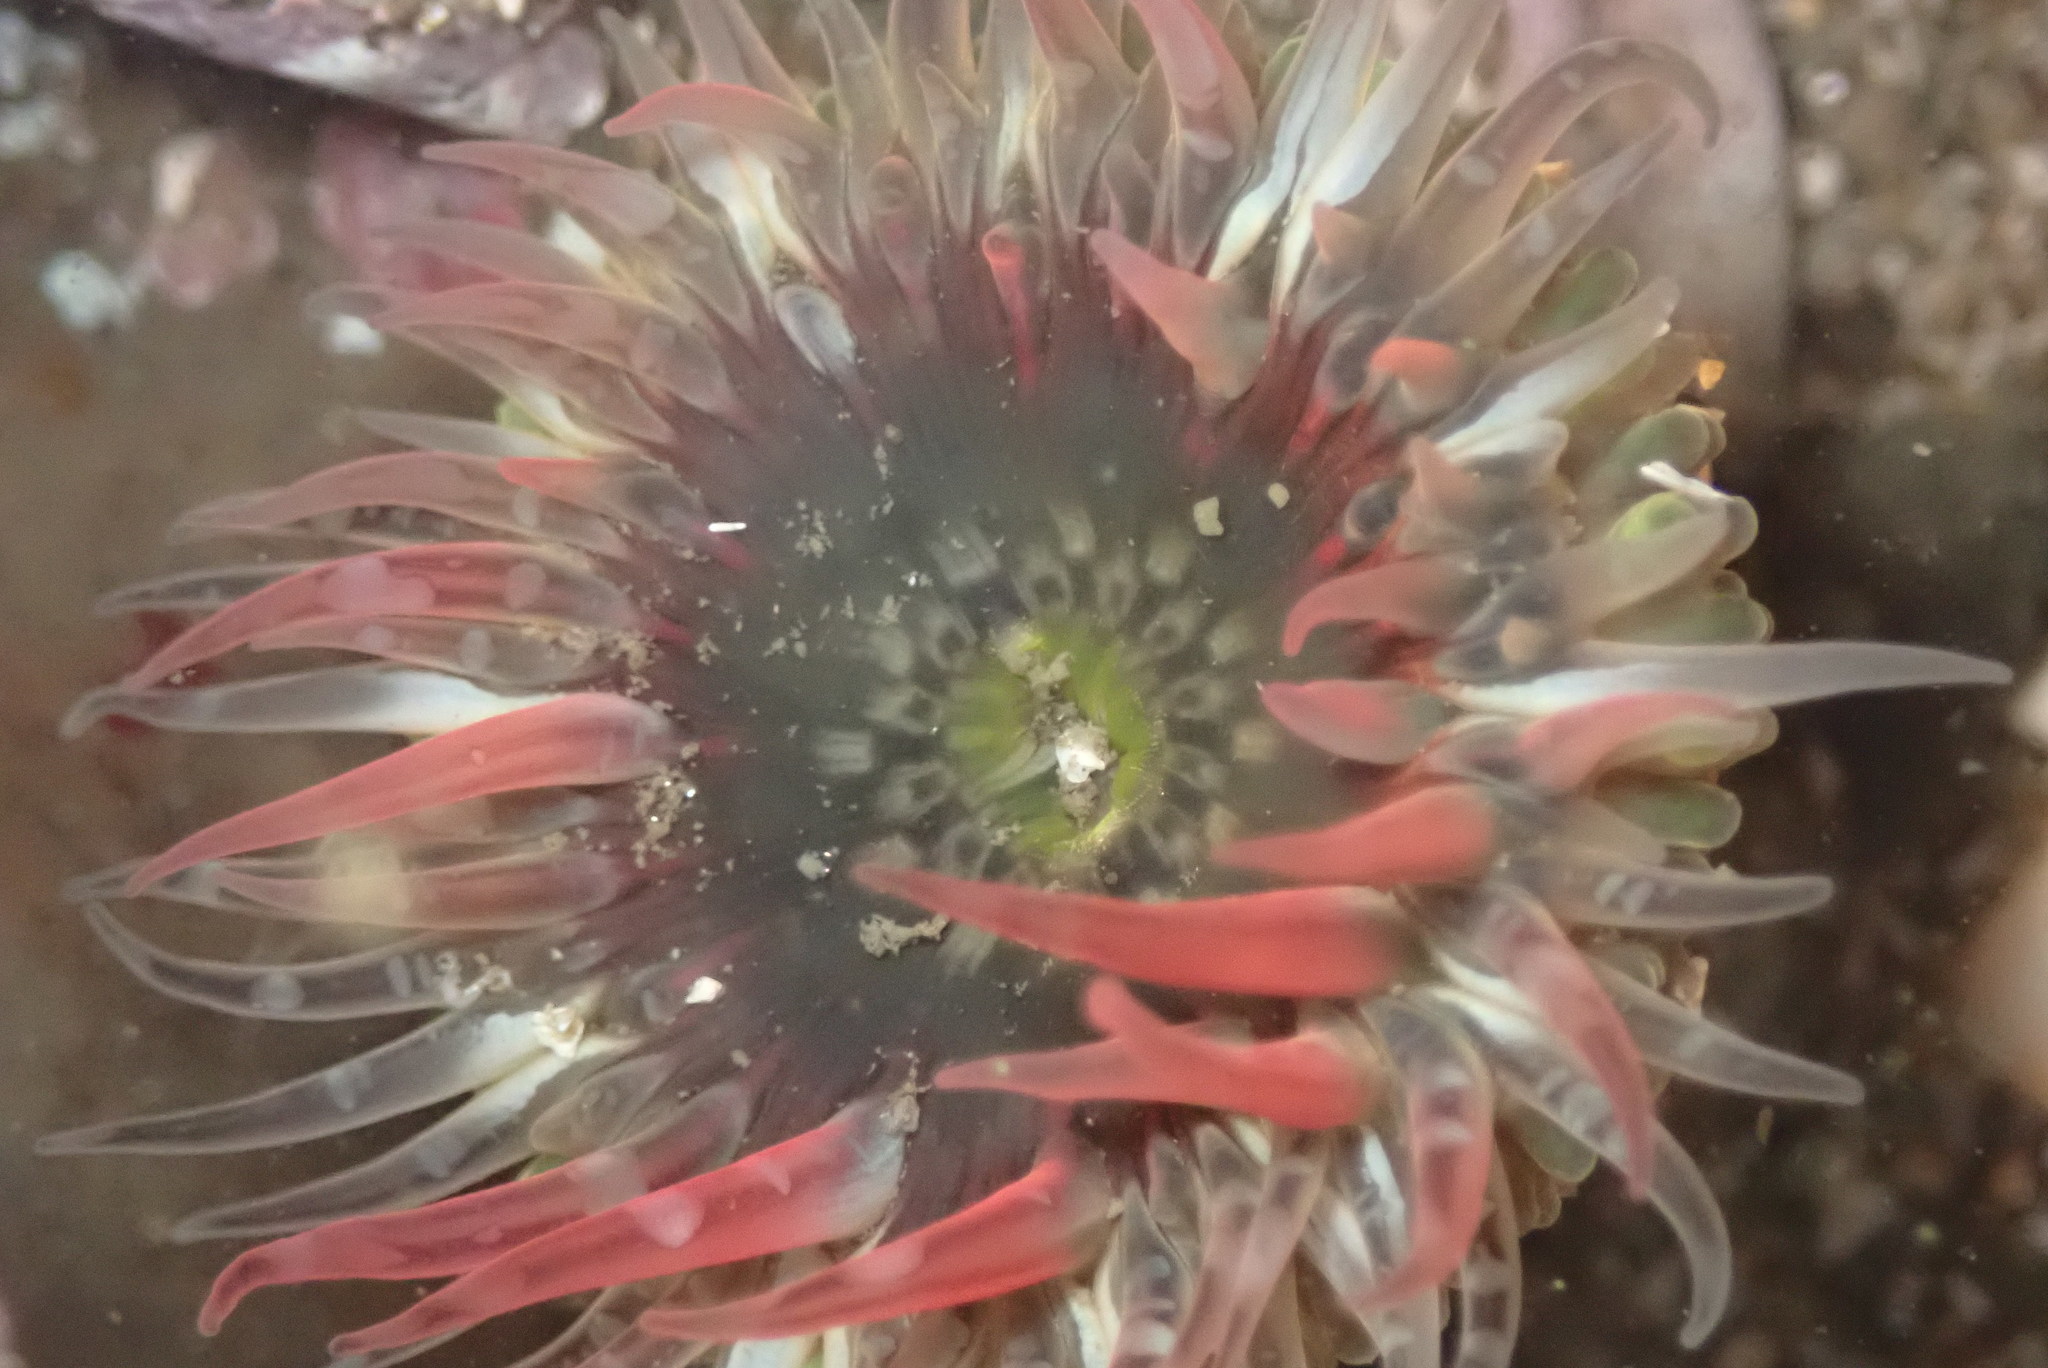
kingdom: Animalia
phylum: Cnidaria
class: Anthozoa
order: Actiniaria
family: Actiniidae
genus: Anthopleura
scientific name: Anthopleura artemisia
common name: Buried sea anemone
